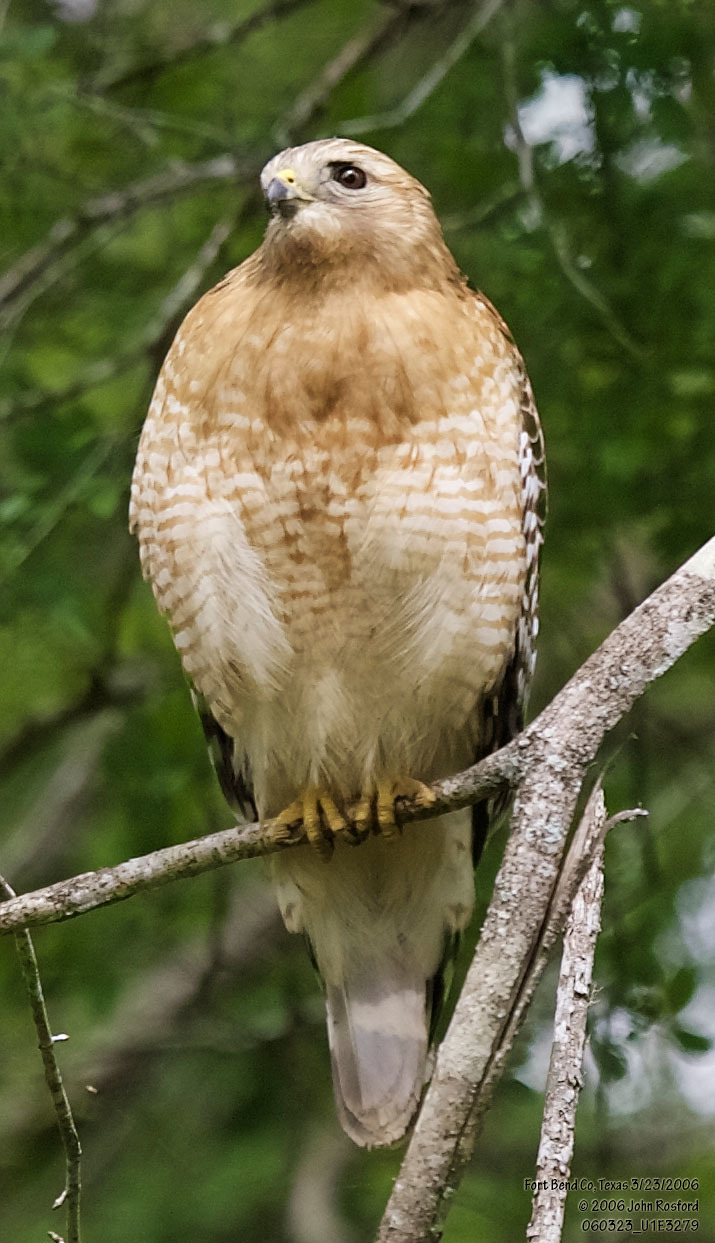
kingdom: Animalia
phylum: Chordata
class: Aves
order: Accipitriformes
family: Accipitridae
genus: Buteo
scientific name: Buteo lineatus
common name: Red-shouldered hawk
